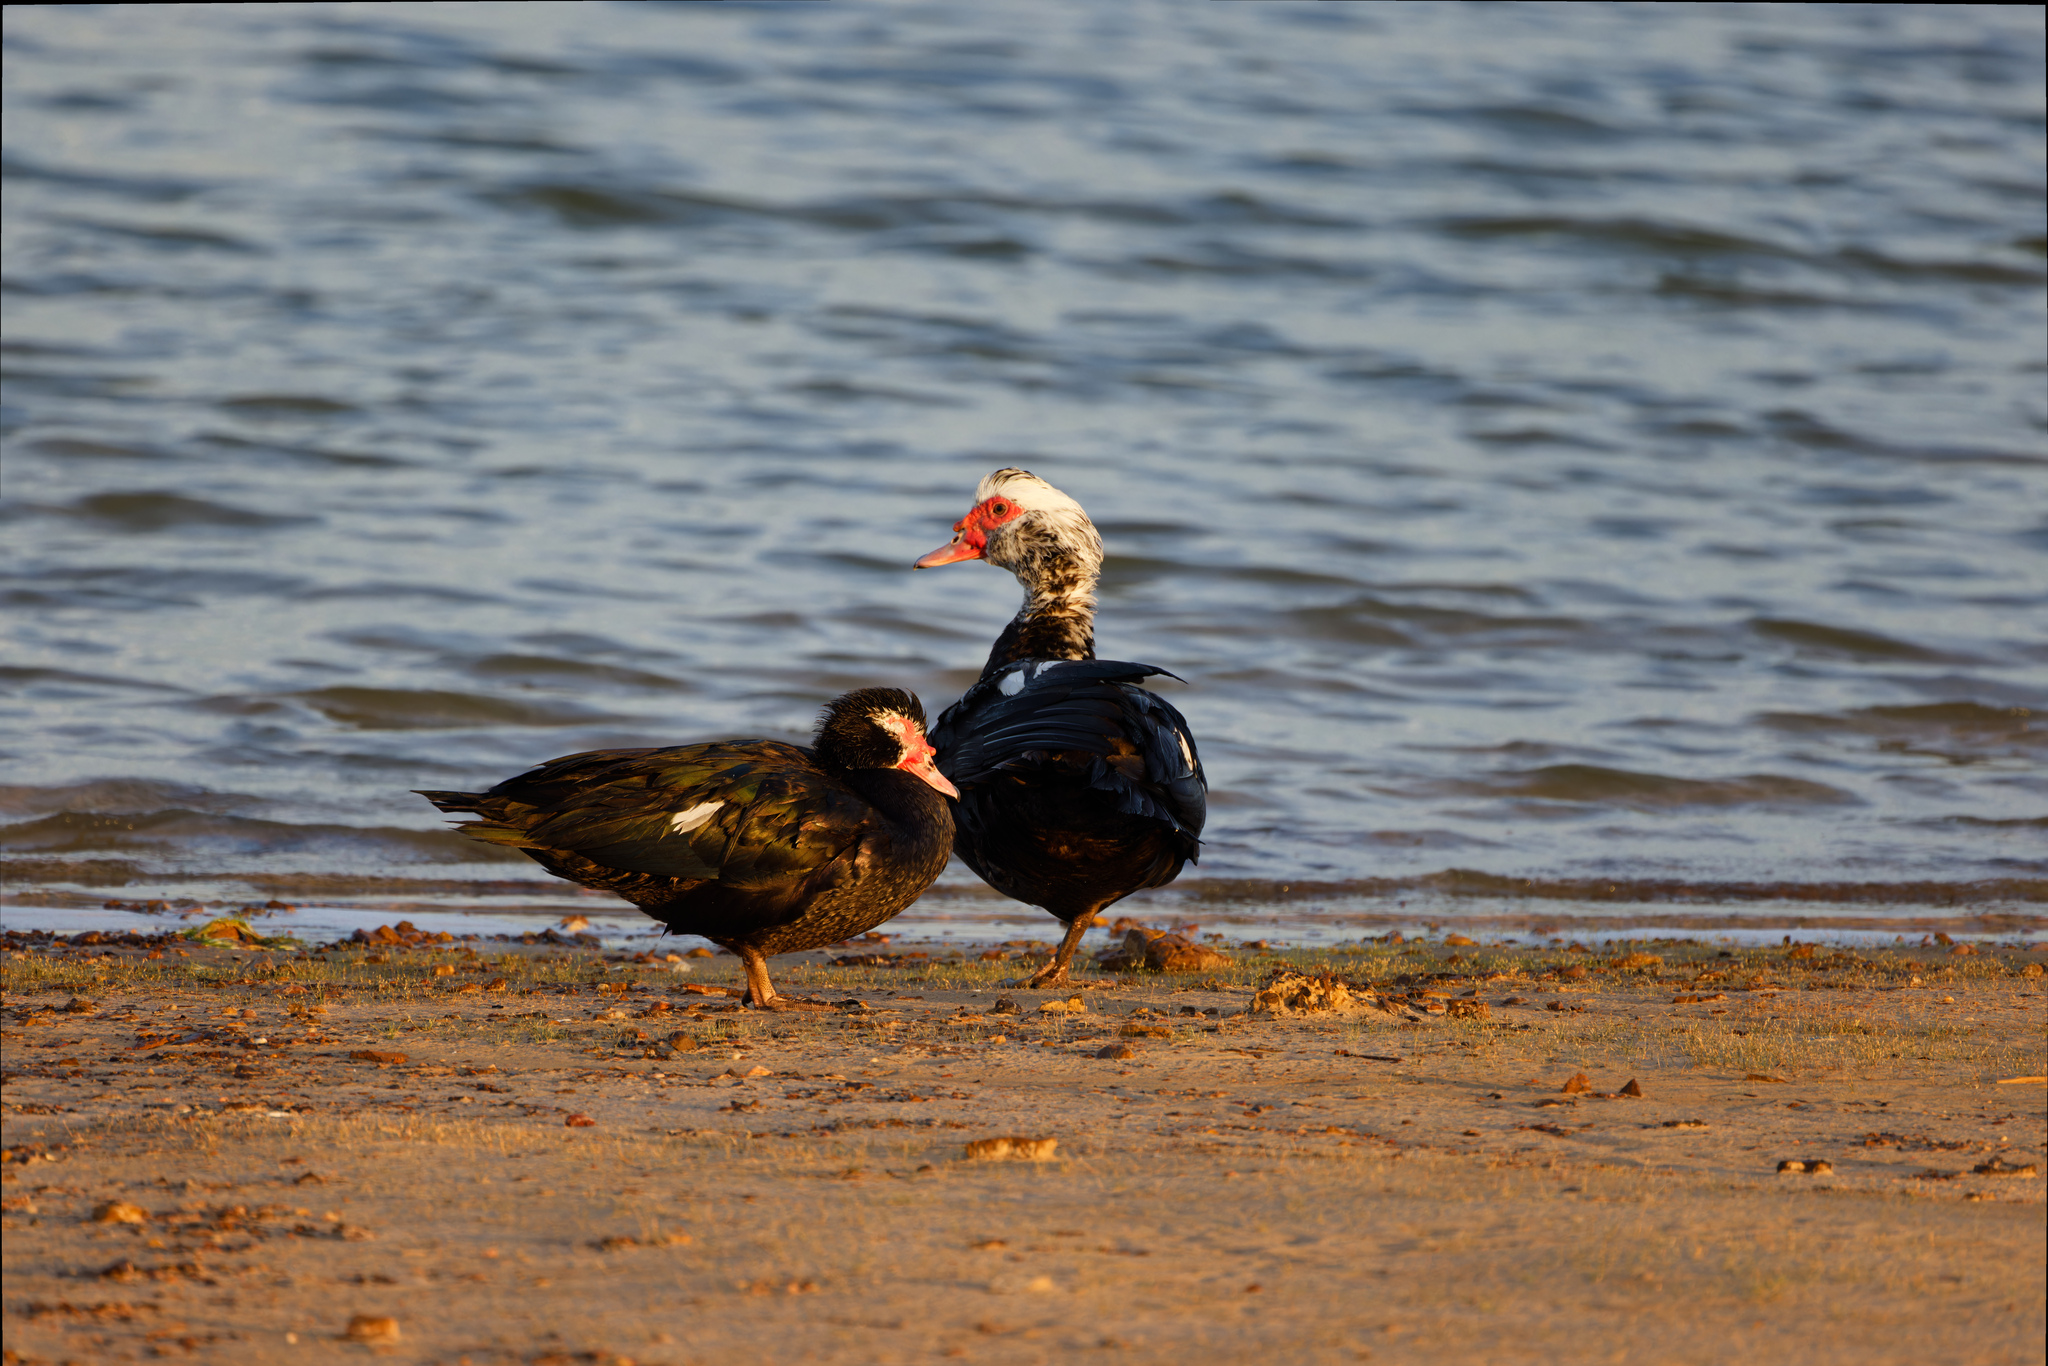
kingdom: Animalia
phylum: Chordata
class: Aves
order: Anseriformes
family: Anatidae
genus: Cairina
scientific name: Cairina moschata
